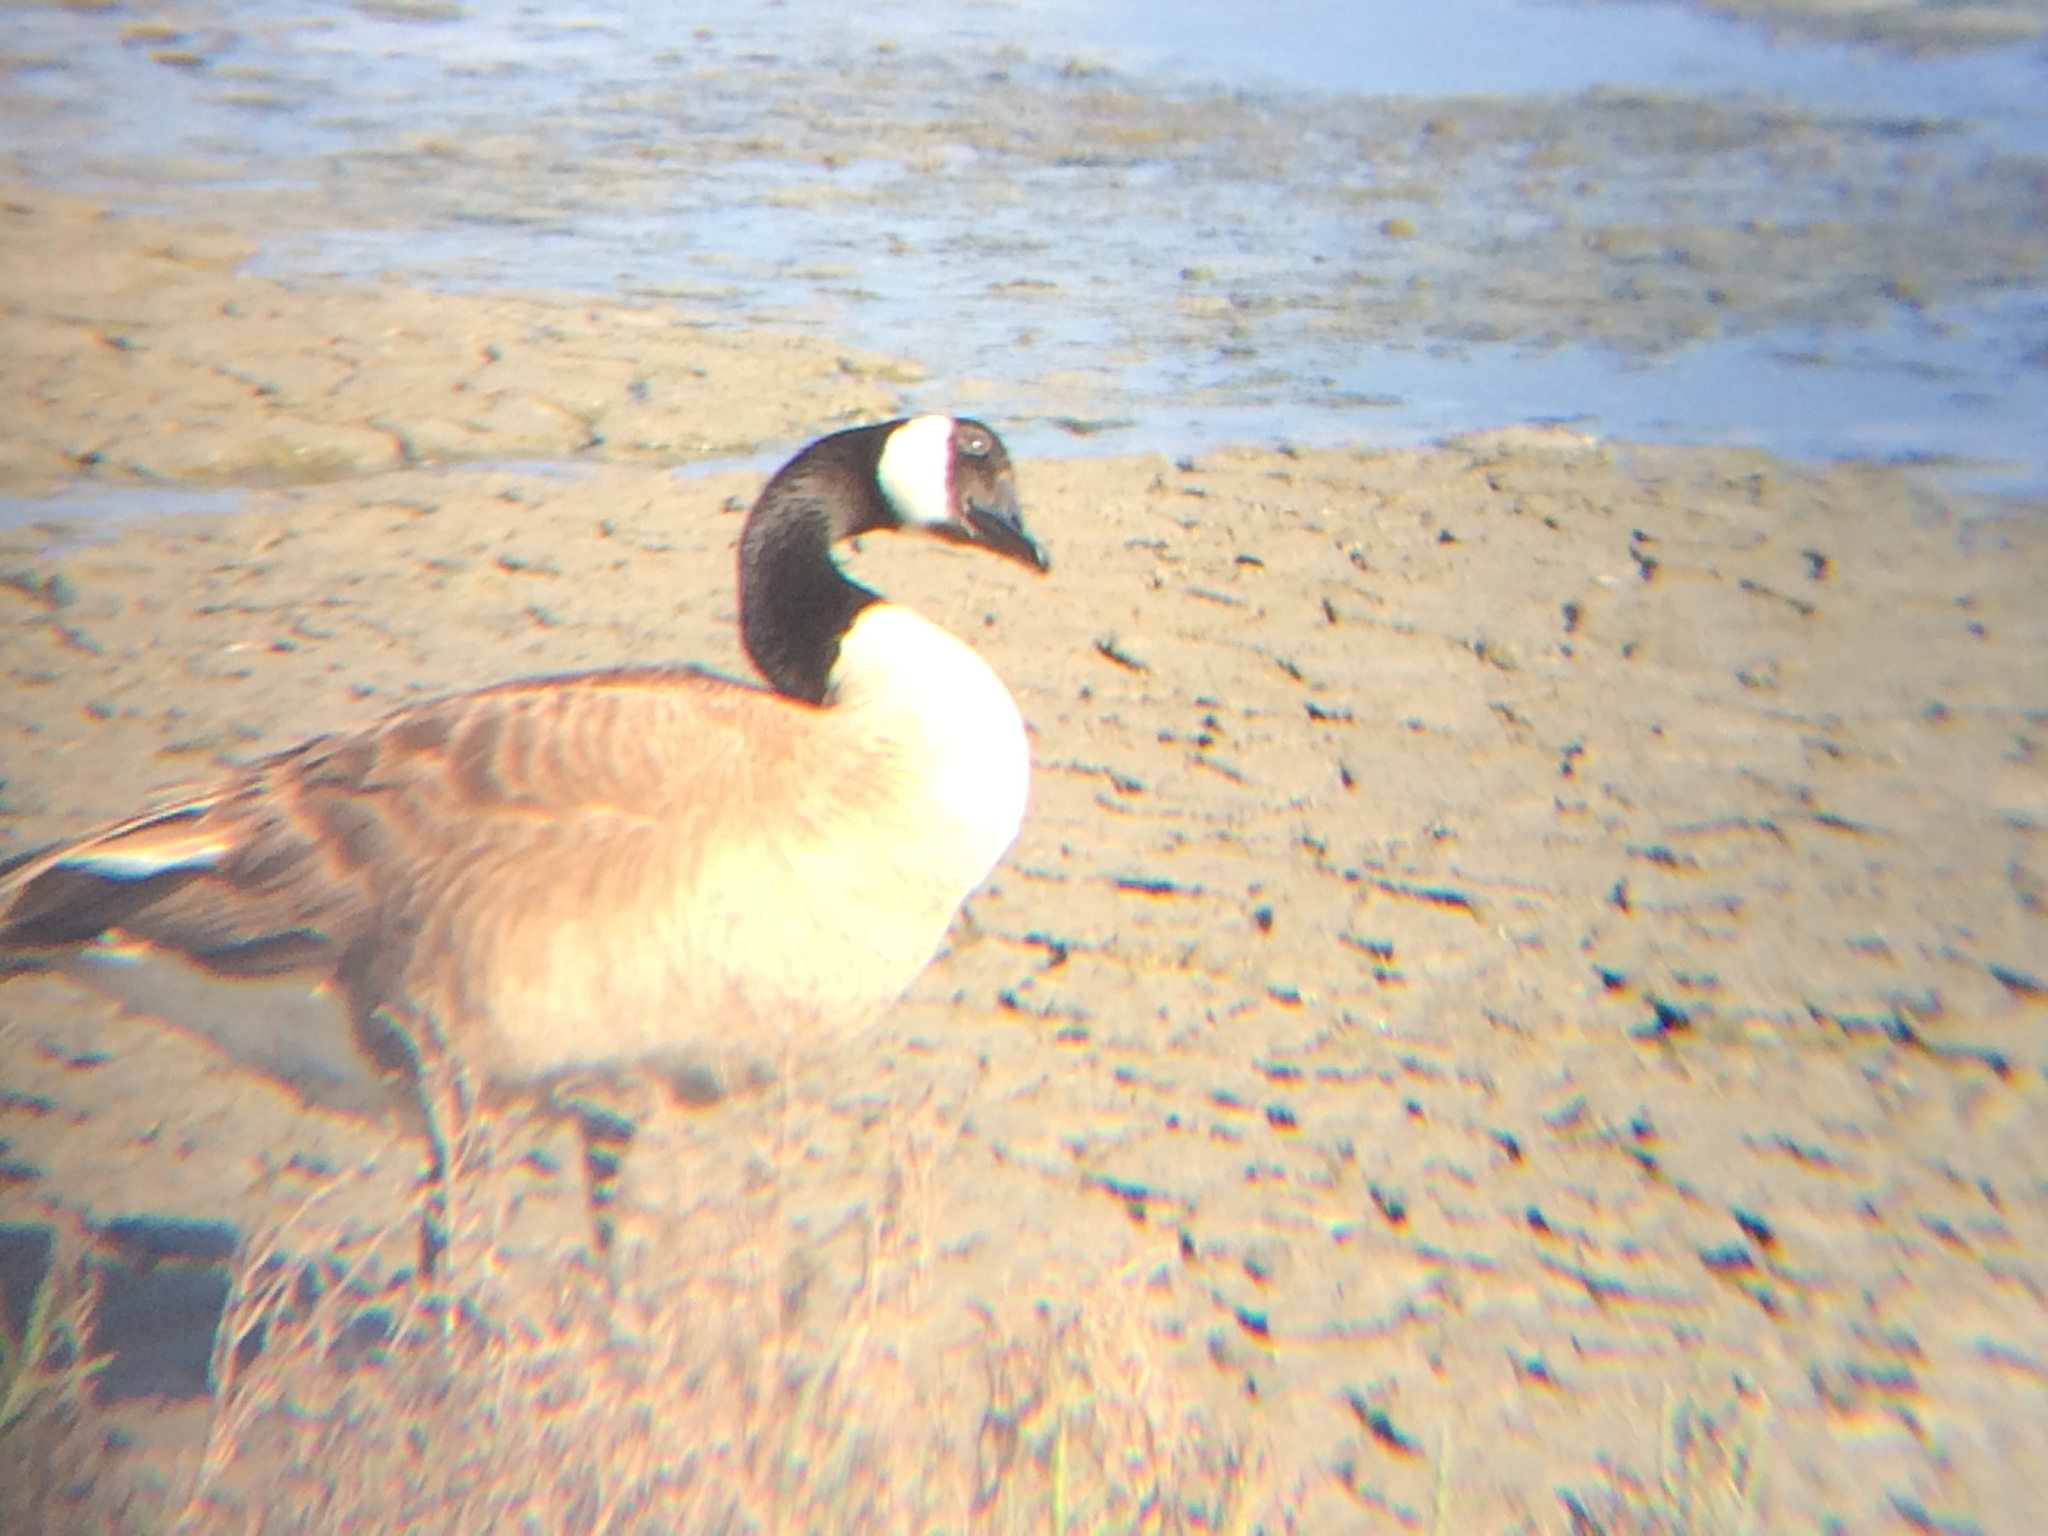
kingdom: Animalia
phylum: Chordata
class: Aves
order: Anseriformes
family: Anatidae
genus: Branta
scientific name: Branta canadensis
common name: Canada goose
